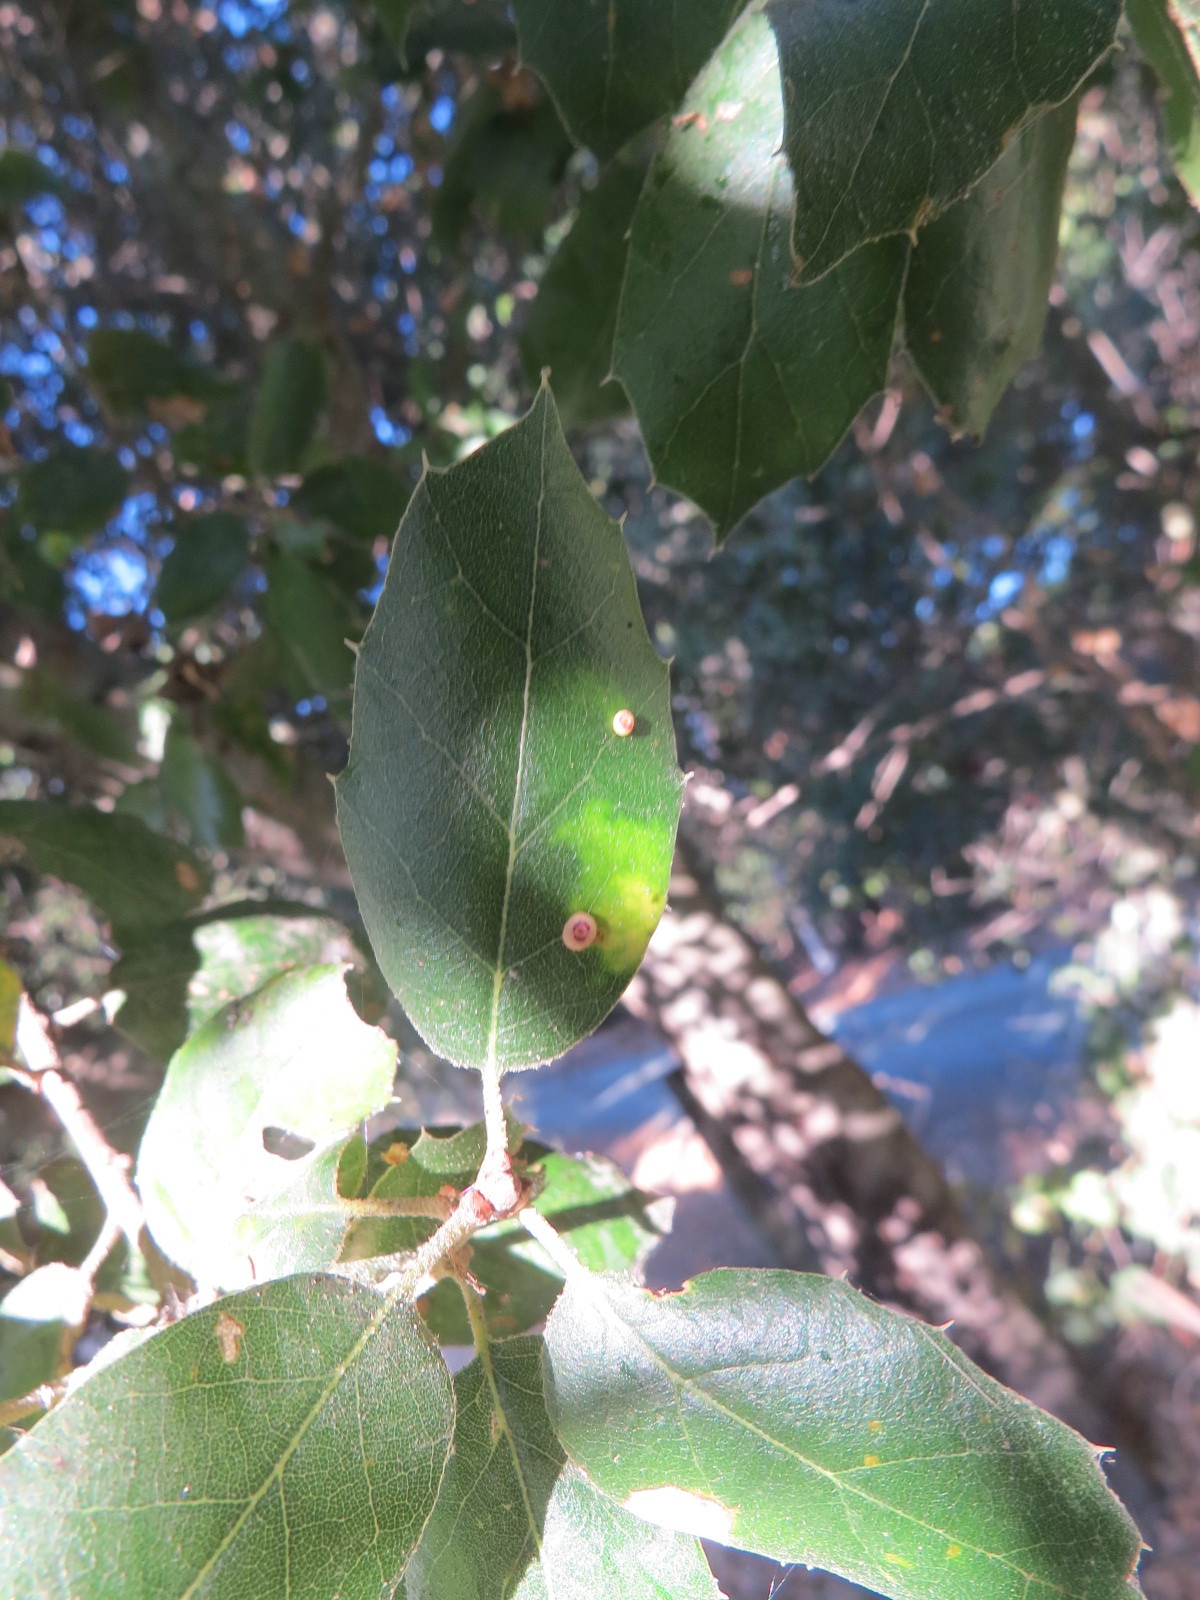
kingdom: Animalia
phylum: Arthropoda
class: Insecta
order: Hymenoptera
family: Cynipidae
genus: Dryocosmus
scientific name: Dryocosmus
